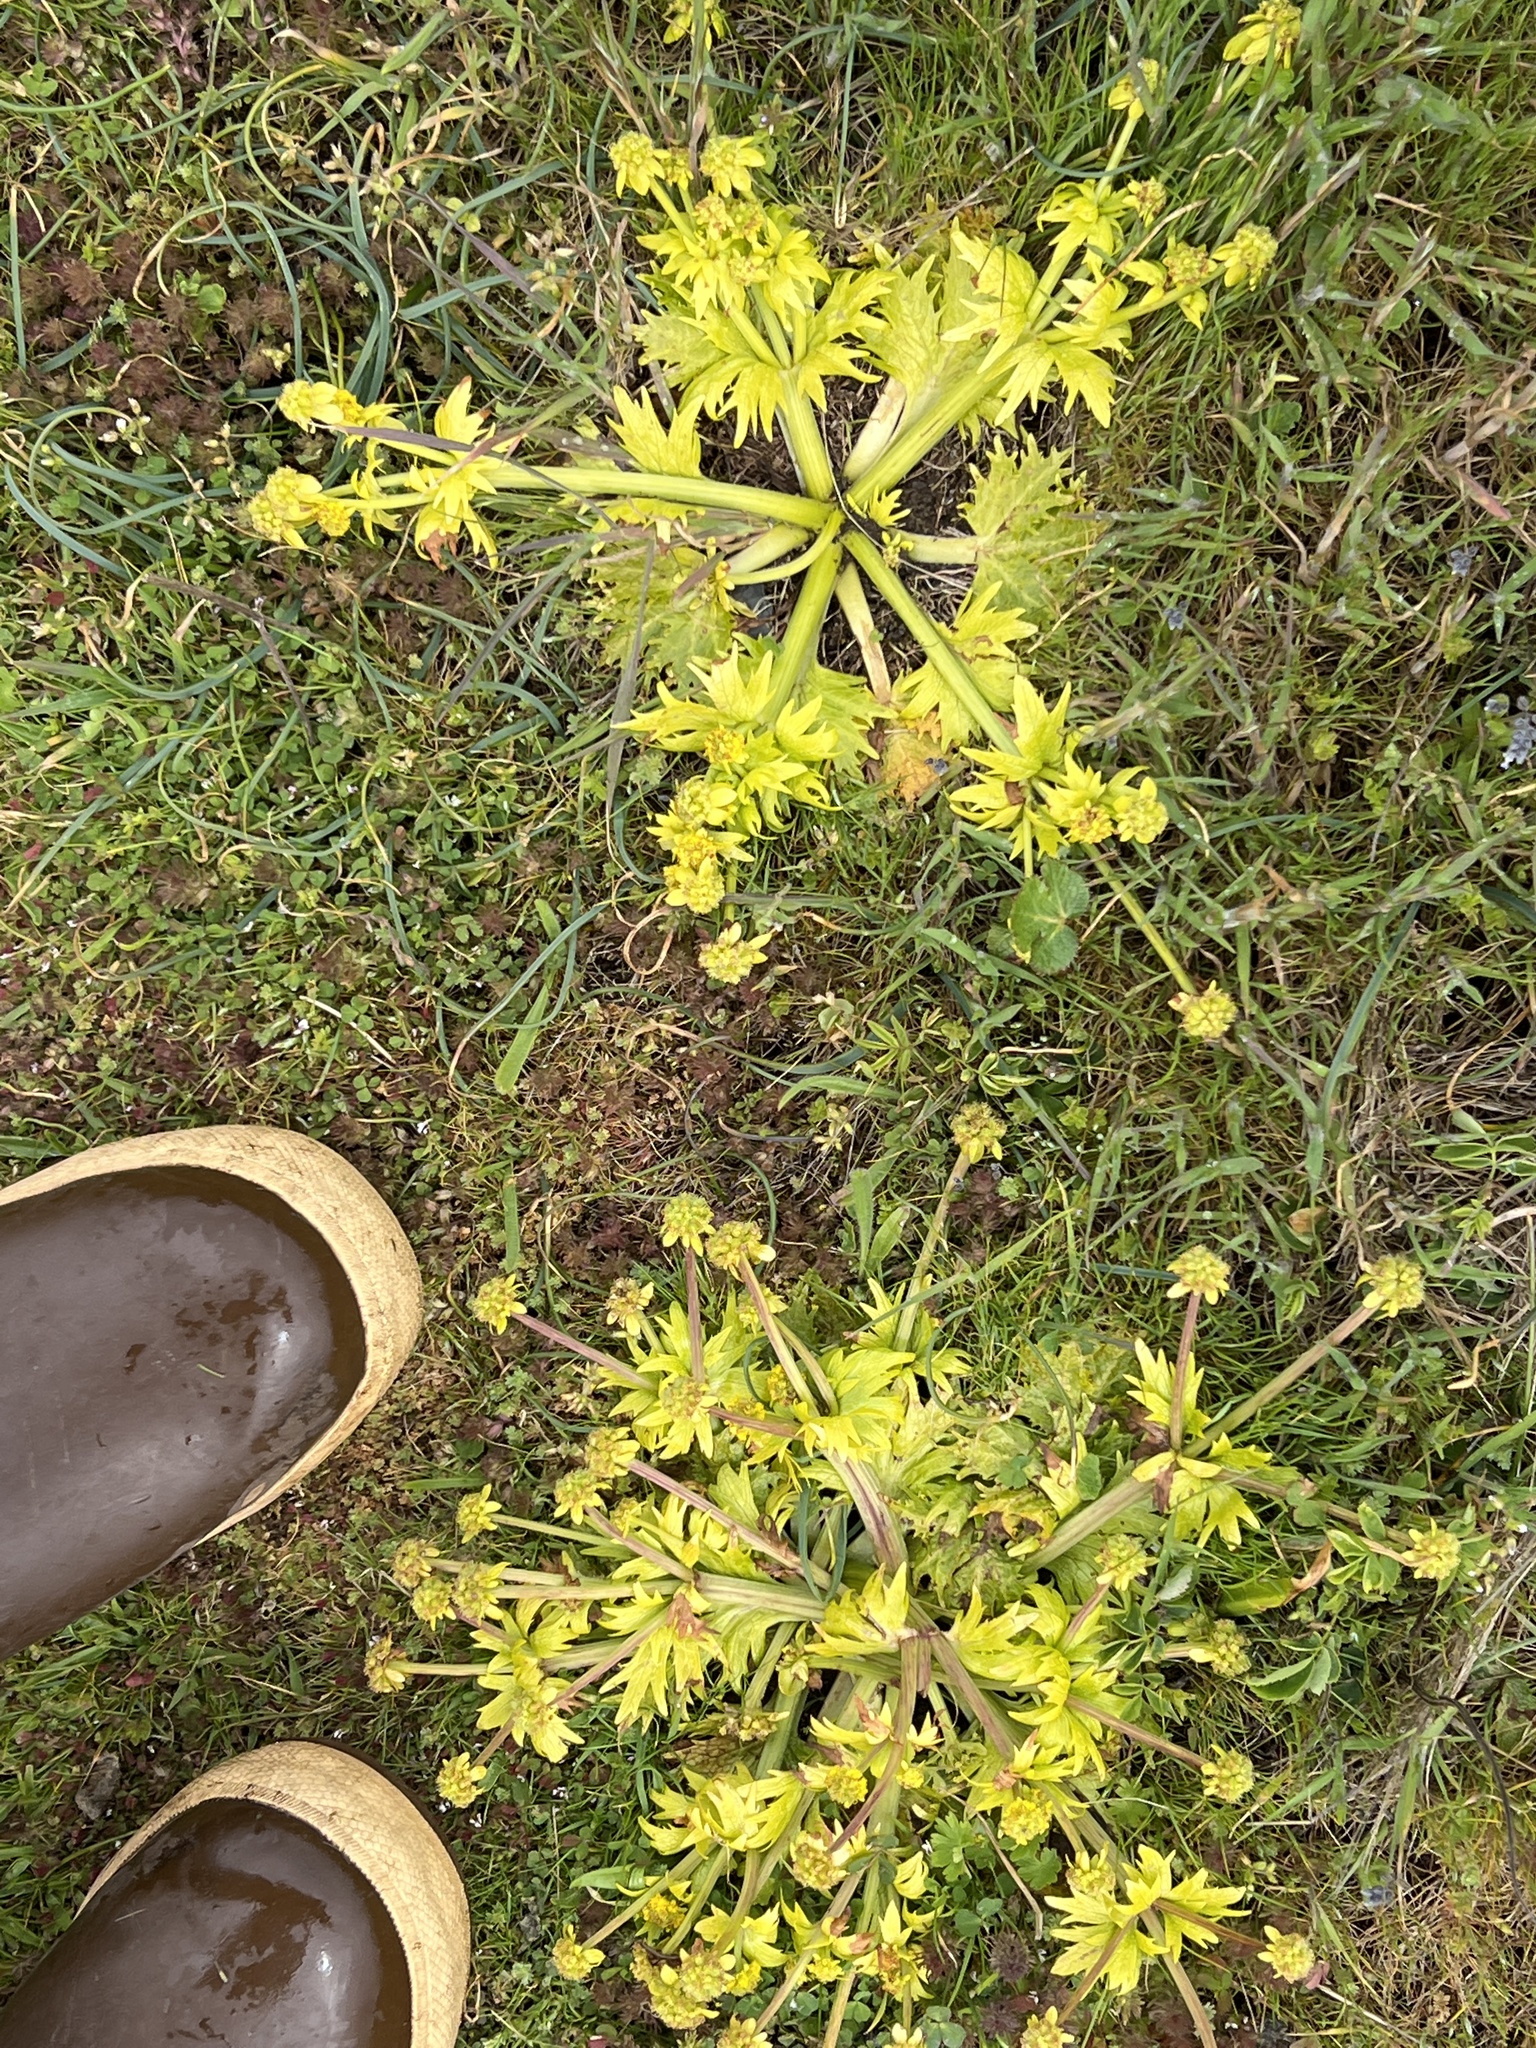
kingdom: Plantae
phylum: Tracheophyta
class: Magnoliopsida
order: Apiales
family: Apiaceae
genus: Sanicula
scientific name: Sanicula arctopoides
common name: Footsteps-of-spring
